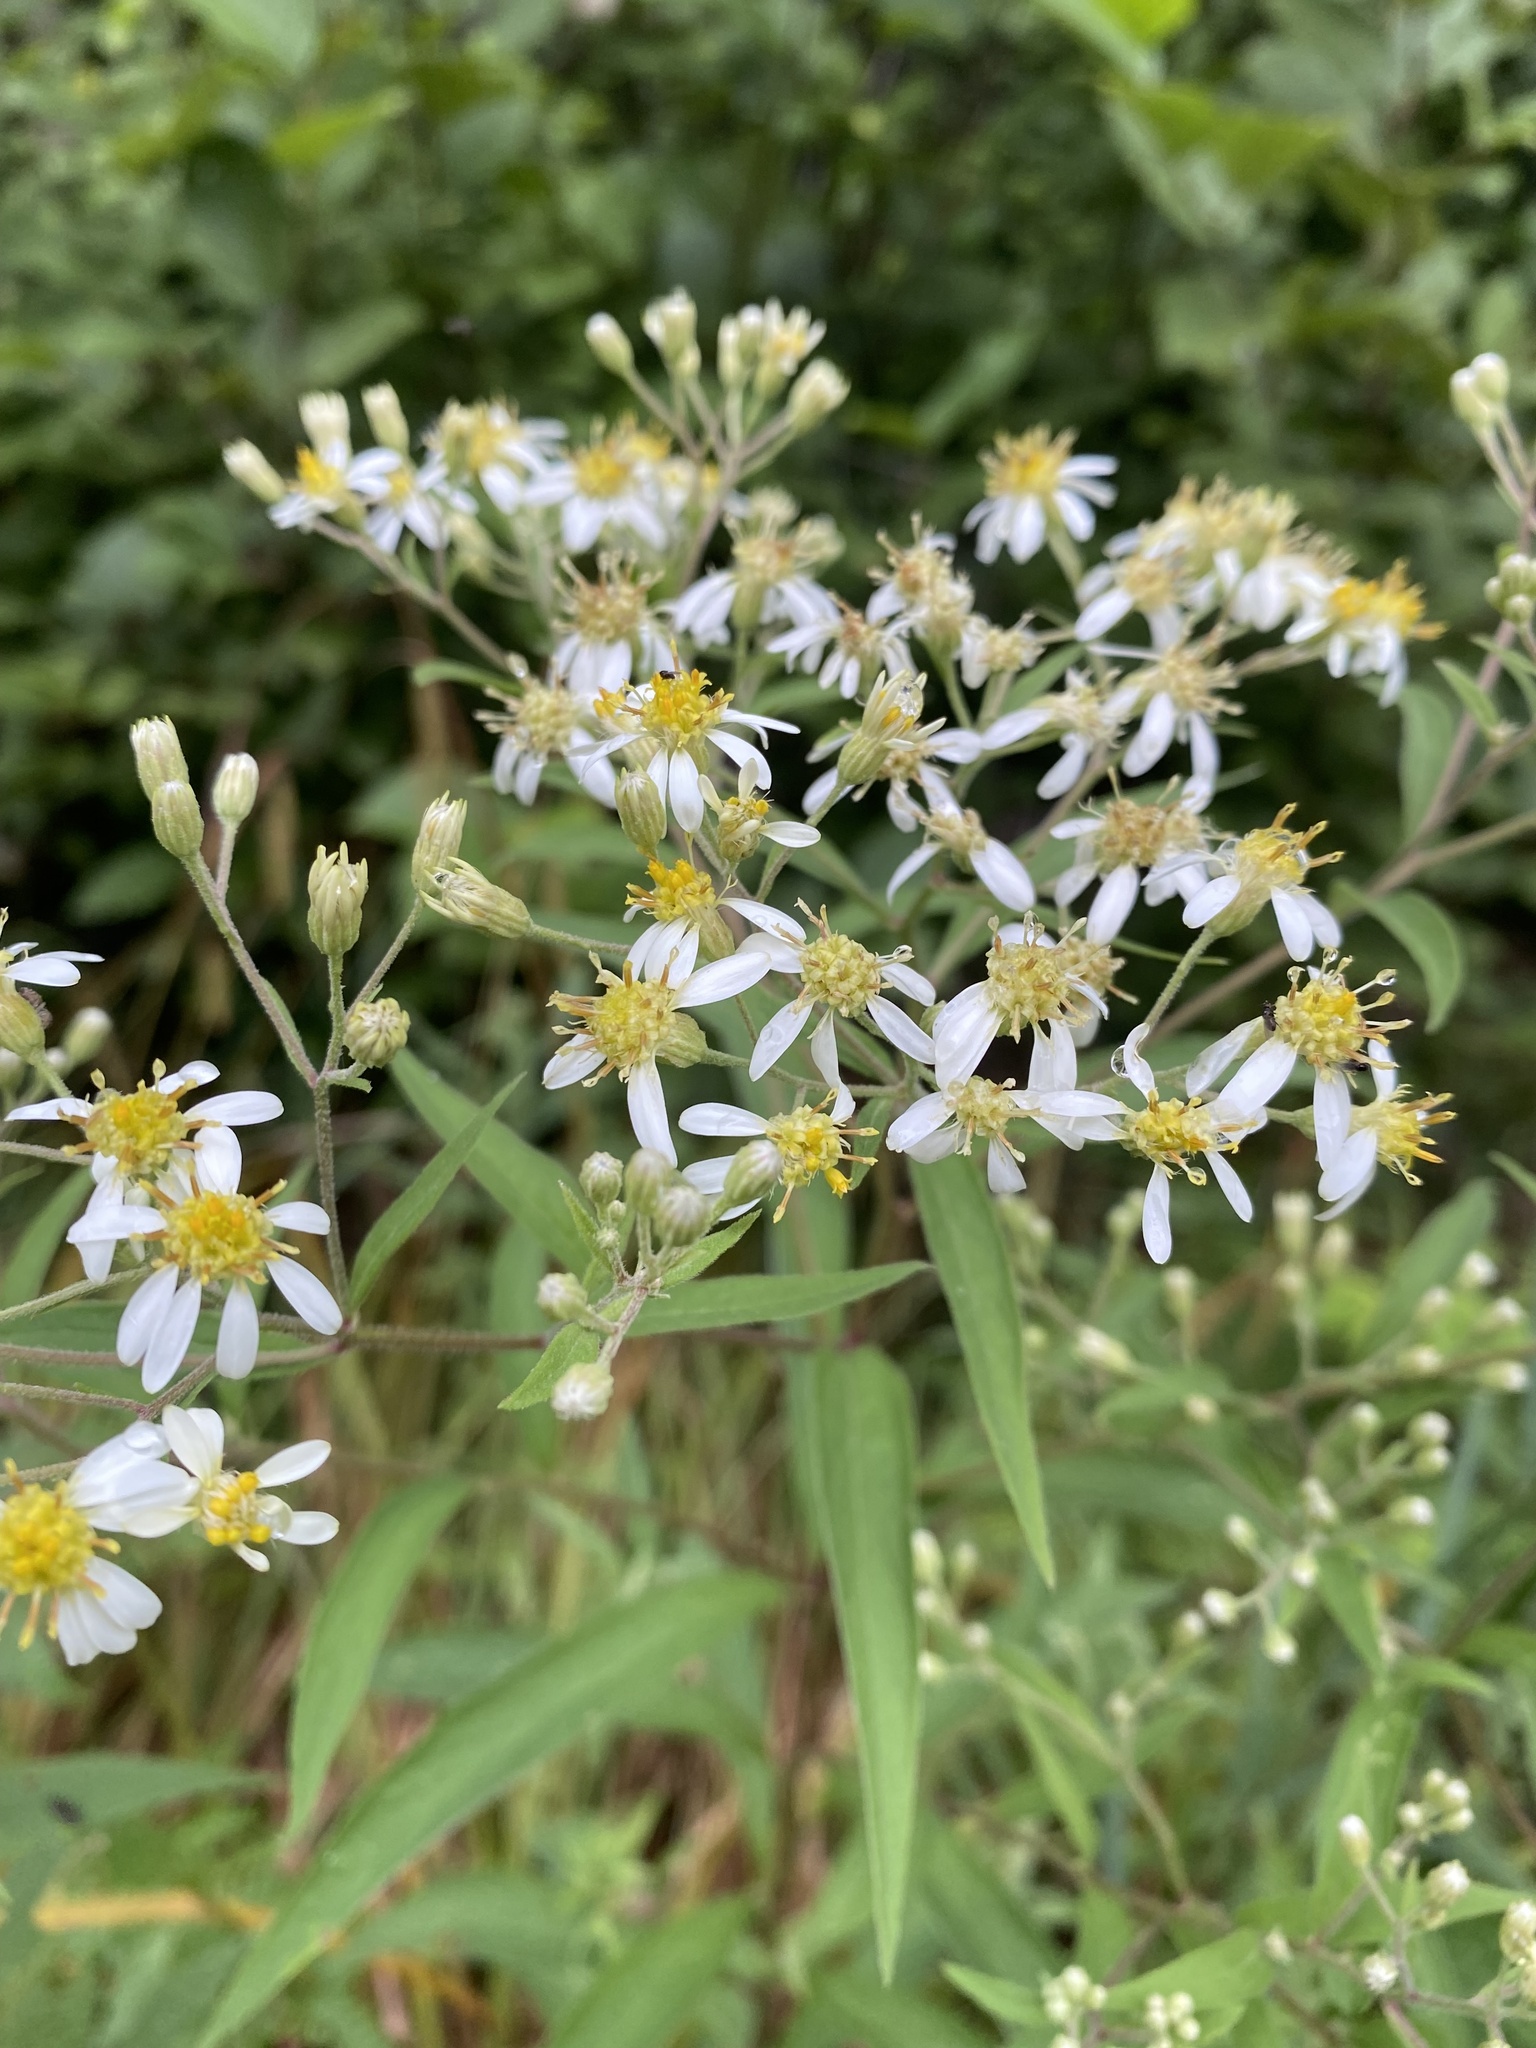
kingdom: Plantae
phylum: Tracheophyta
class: Magnoliopsida
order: Asterales
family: Asteraceae
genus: Doellingeria
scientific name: Doellingeria umbellata
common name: Flat-top white aster
